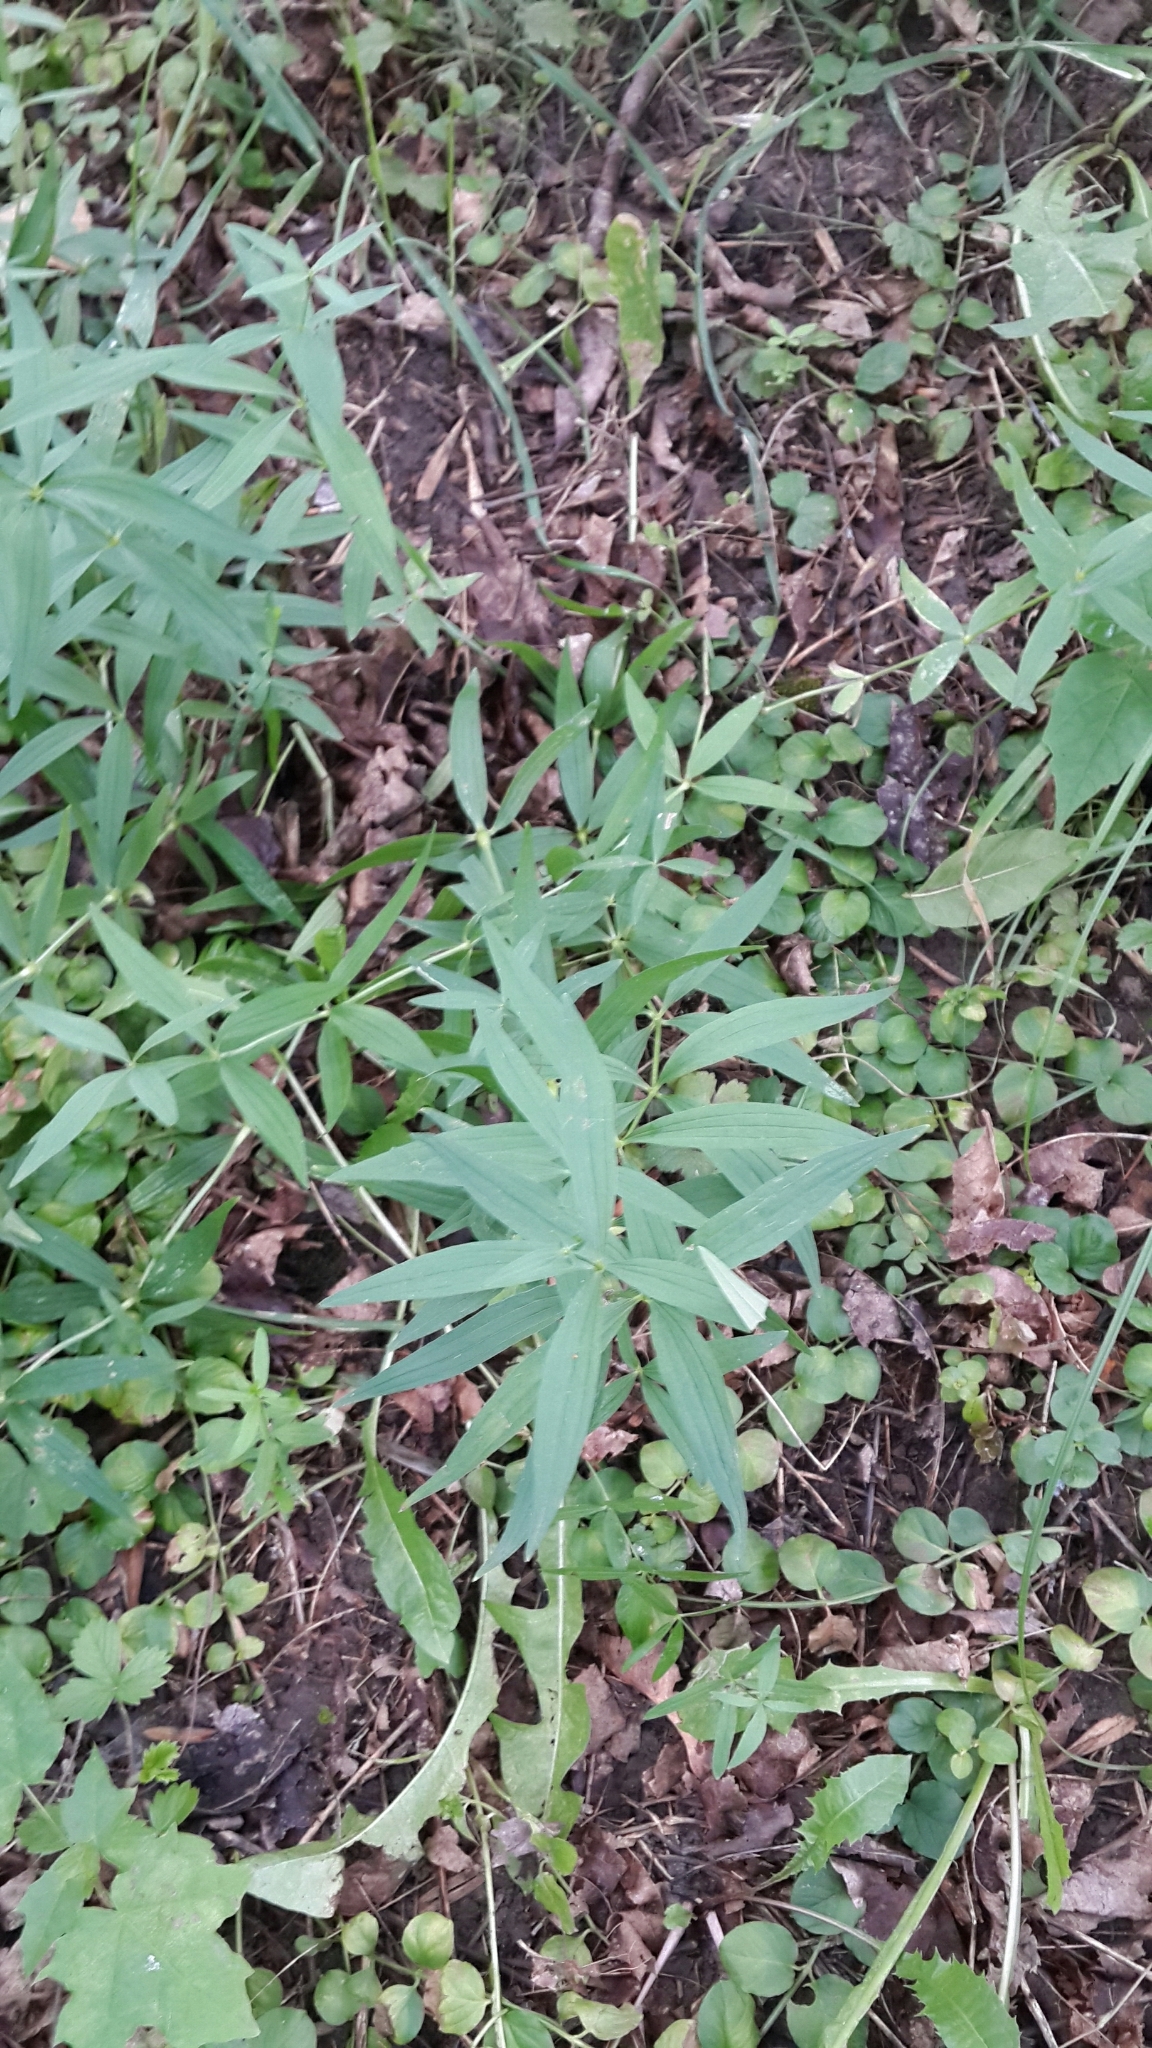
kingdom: Plantae
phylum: Tracheophyta
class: Magnoliopsida
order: Gentianales
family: Rubiaceae
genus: Galium
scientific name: Galium rubioides
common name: European bedstraw
